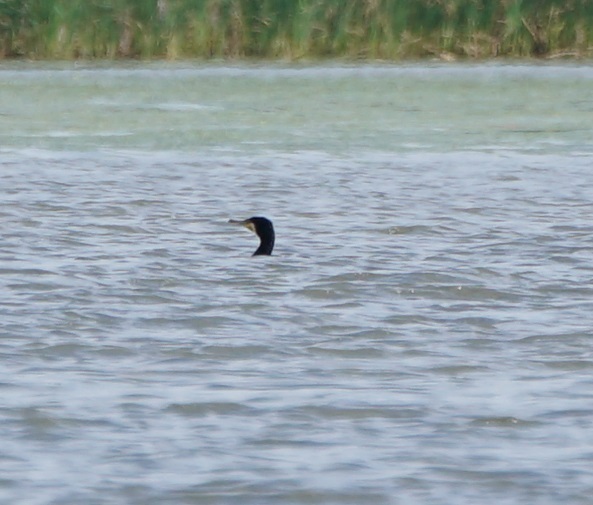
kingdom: Animalia
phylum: Chordata
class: Aves
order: Suliformes
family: Phalacrocoracidae
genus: Phalacrocorax
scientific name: Phalacrocorax carbo
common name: Great cormorant
